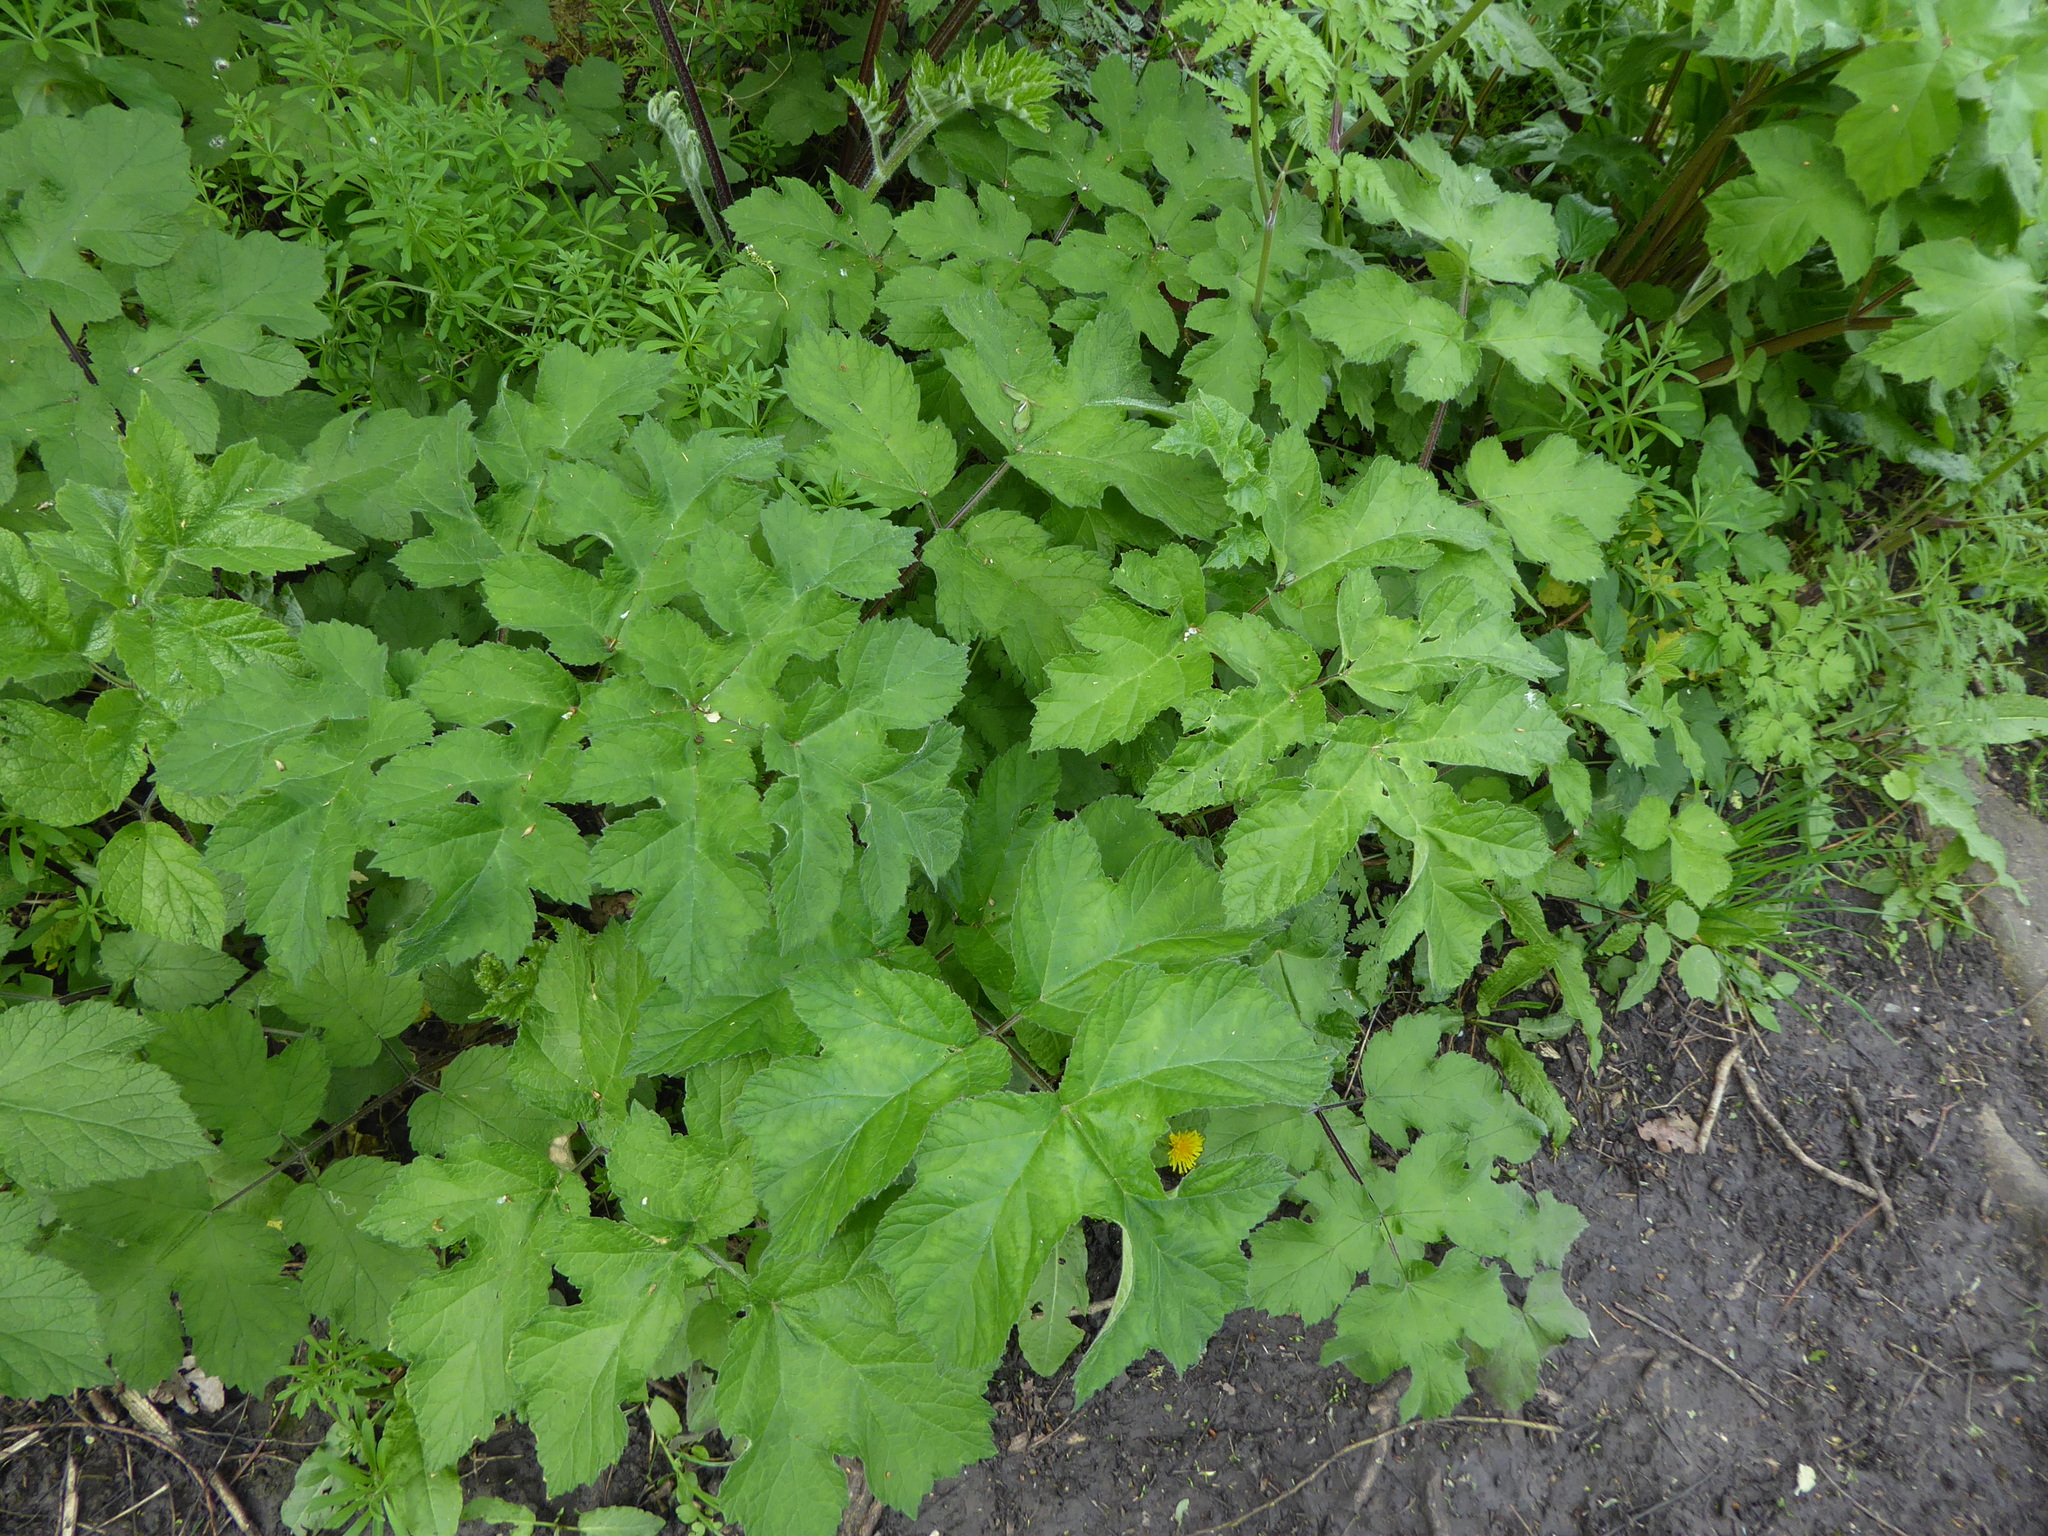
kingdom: Plantae
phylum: Tracheophyta
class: Magnoliopsida
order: Apiales
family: Apiaceae
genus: Heracleum
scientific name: Heracleum sphondylium
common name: Hogweed
